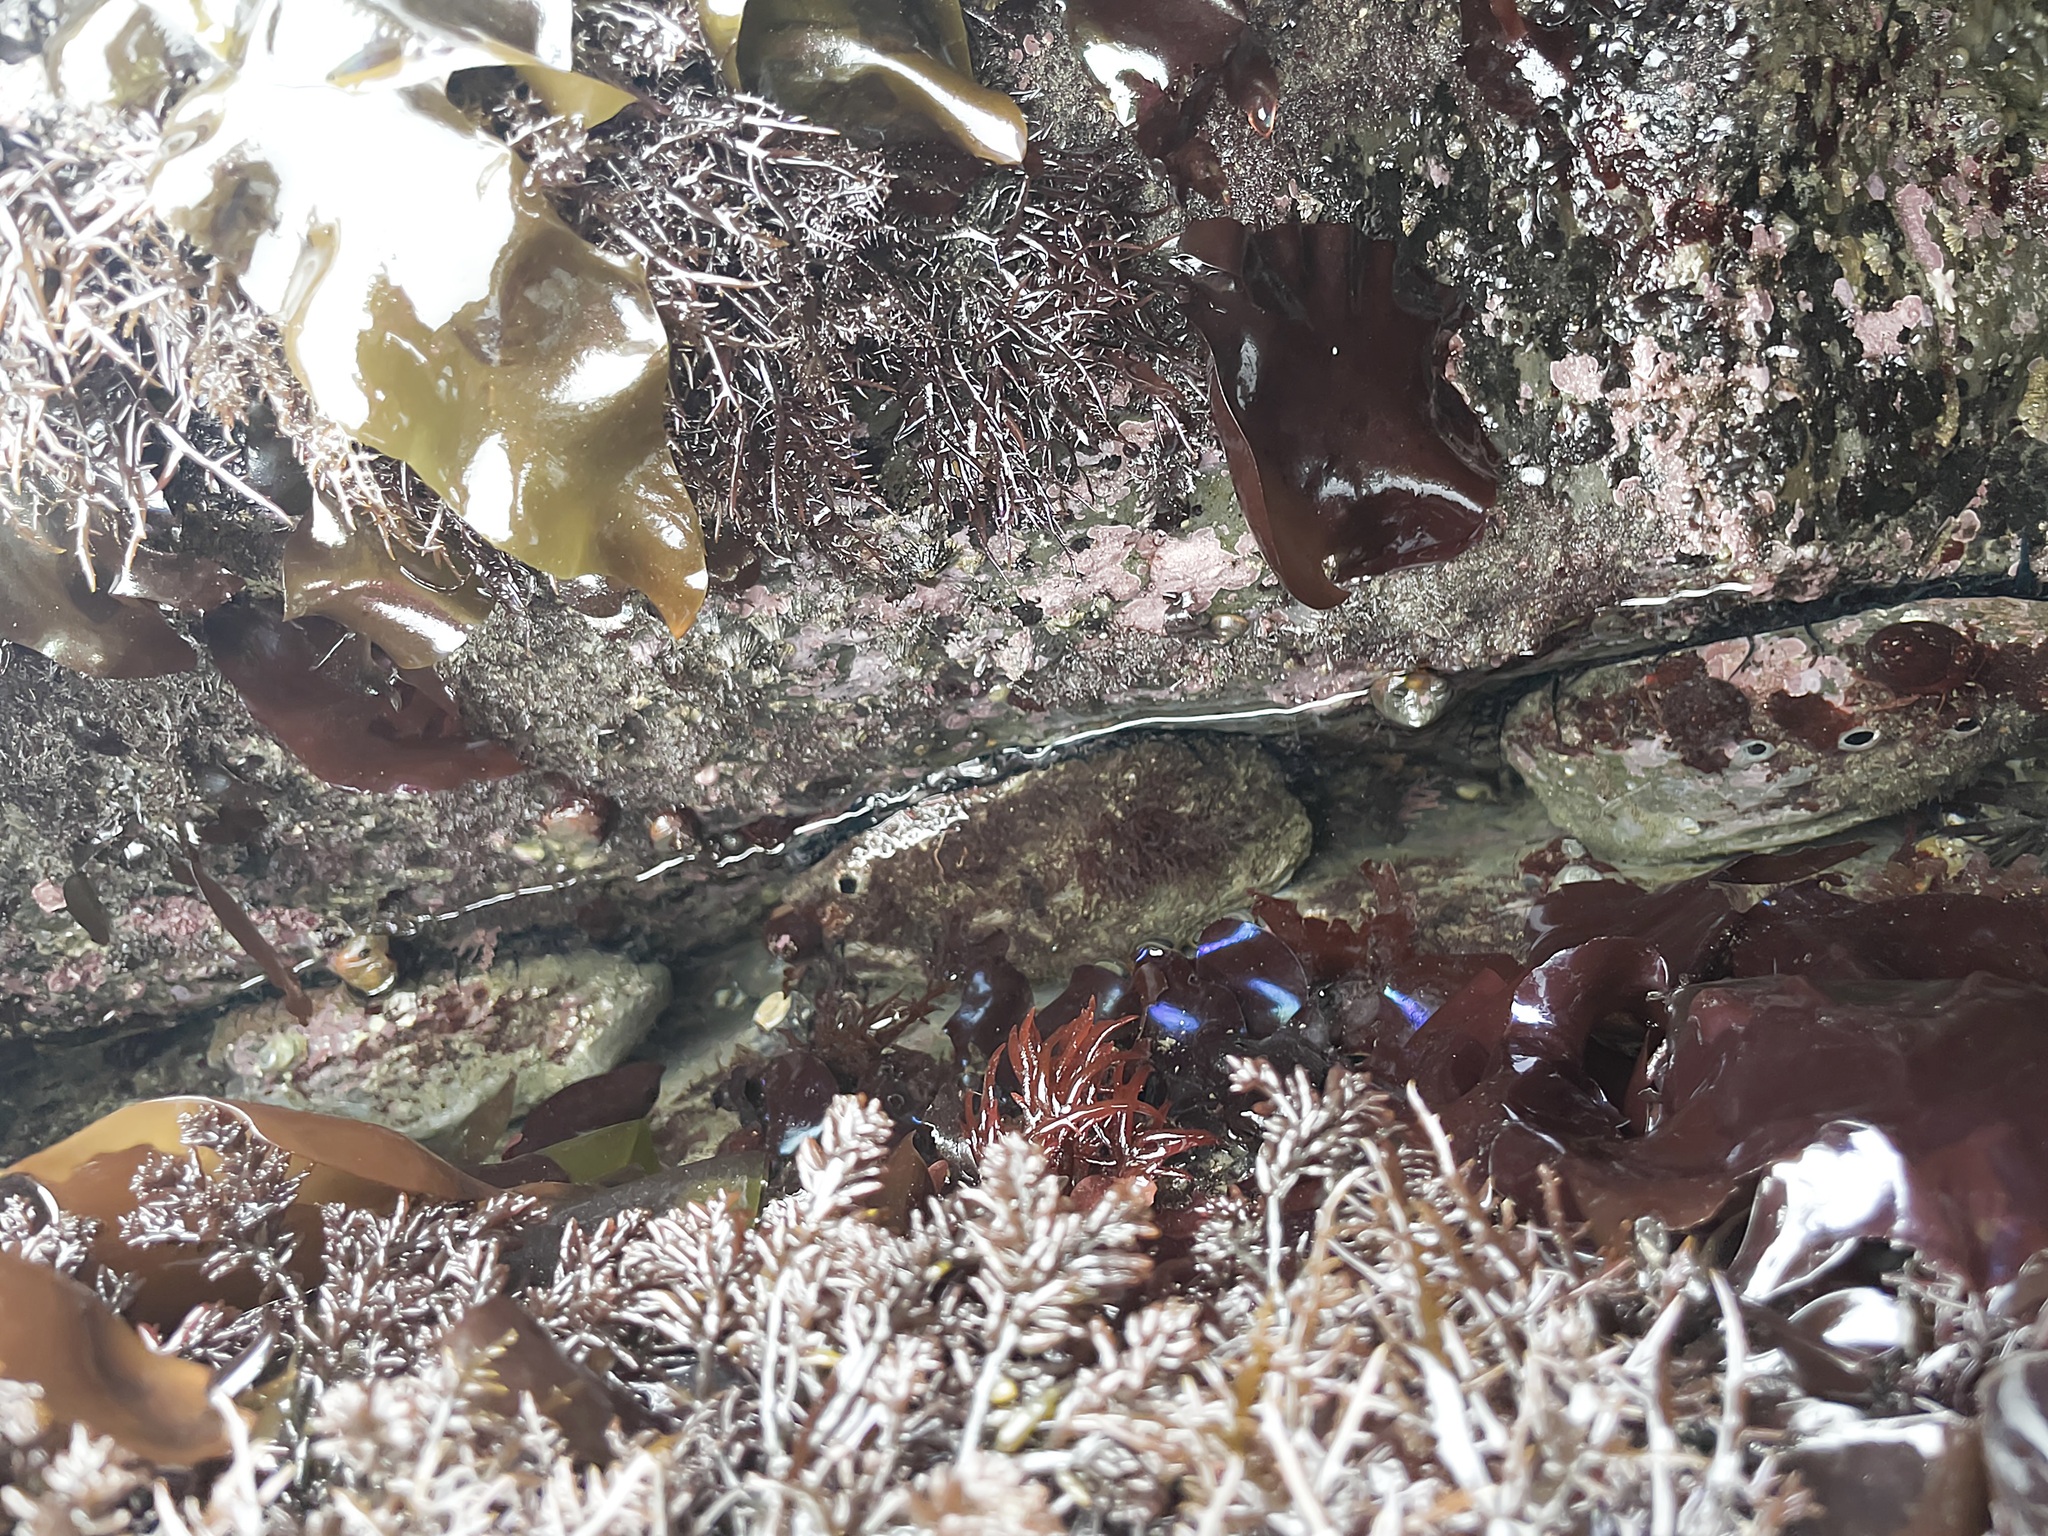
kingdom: Animalia
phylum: Mollusca
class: Gastropoda
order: Lepetellida
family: Haliotidae
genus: Haliotis
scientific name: Haliotis rufescens
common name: Red abalone
